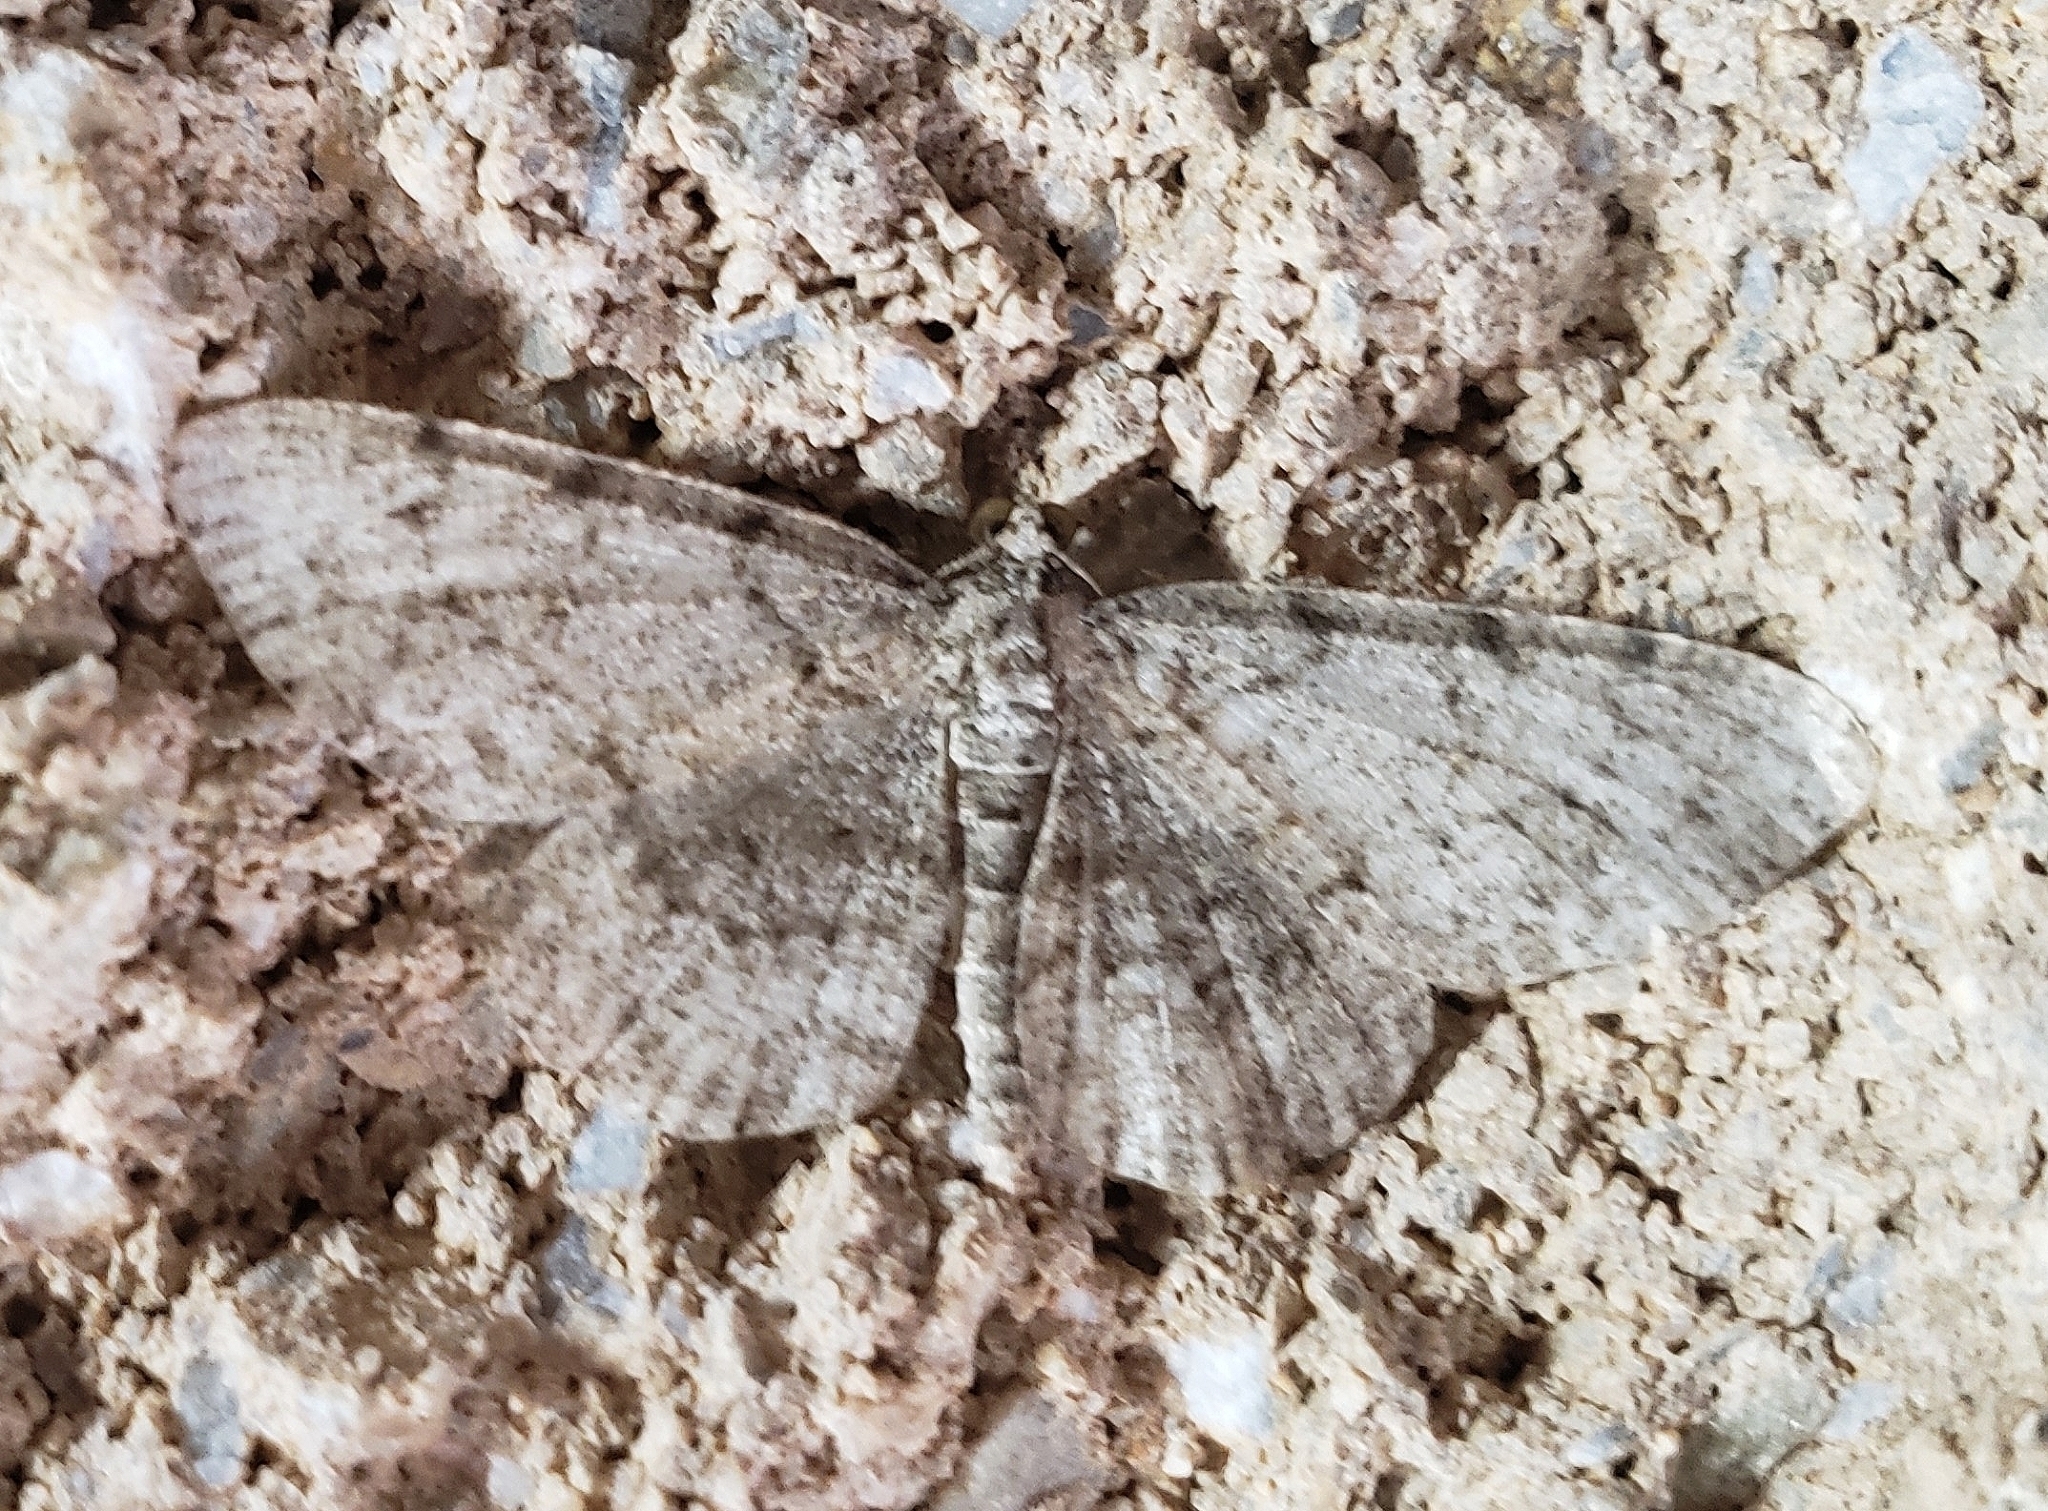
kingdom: Animalia
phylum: Arthropoda
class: Insecta
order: Lepidoptera
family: Geometridae
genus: Protoboarmia
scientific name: Protoboarmia porcelaria
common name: Porcelain gray
